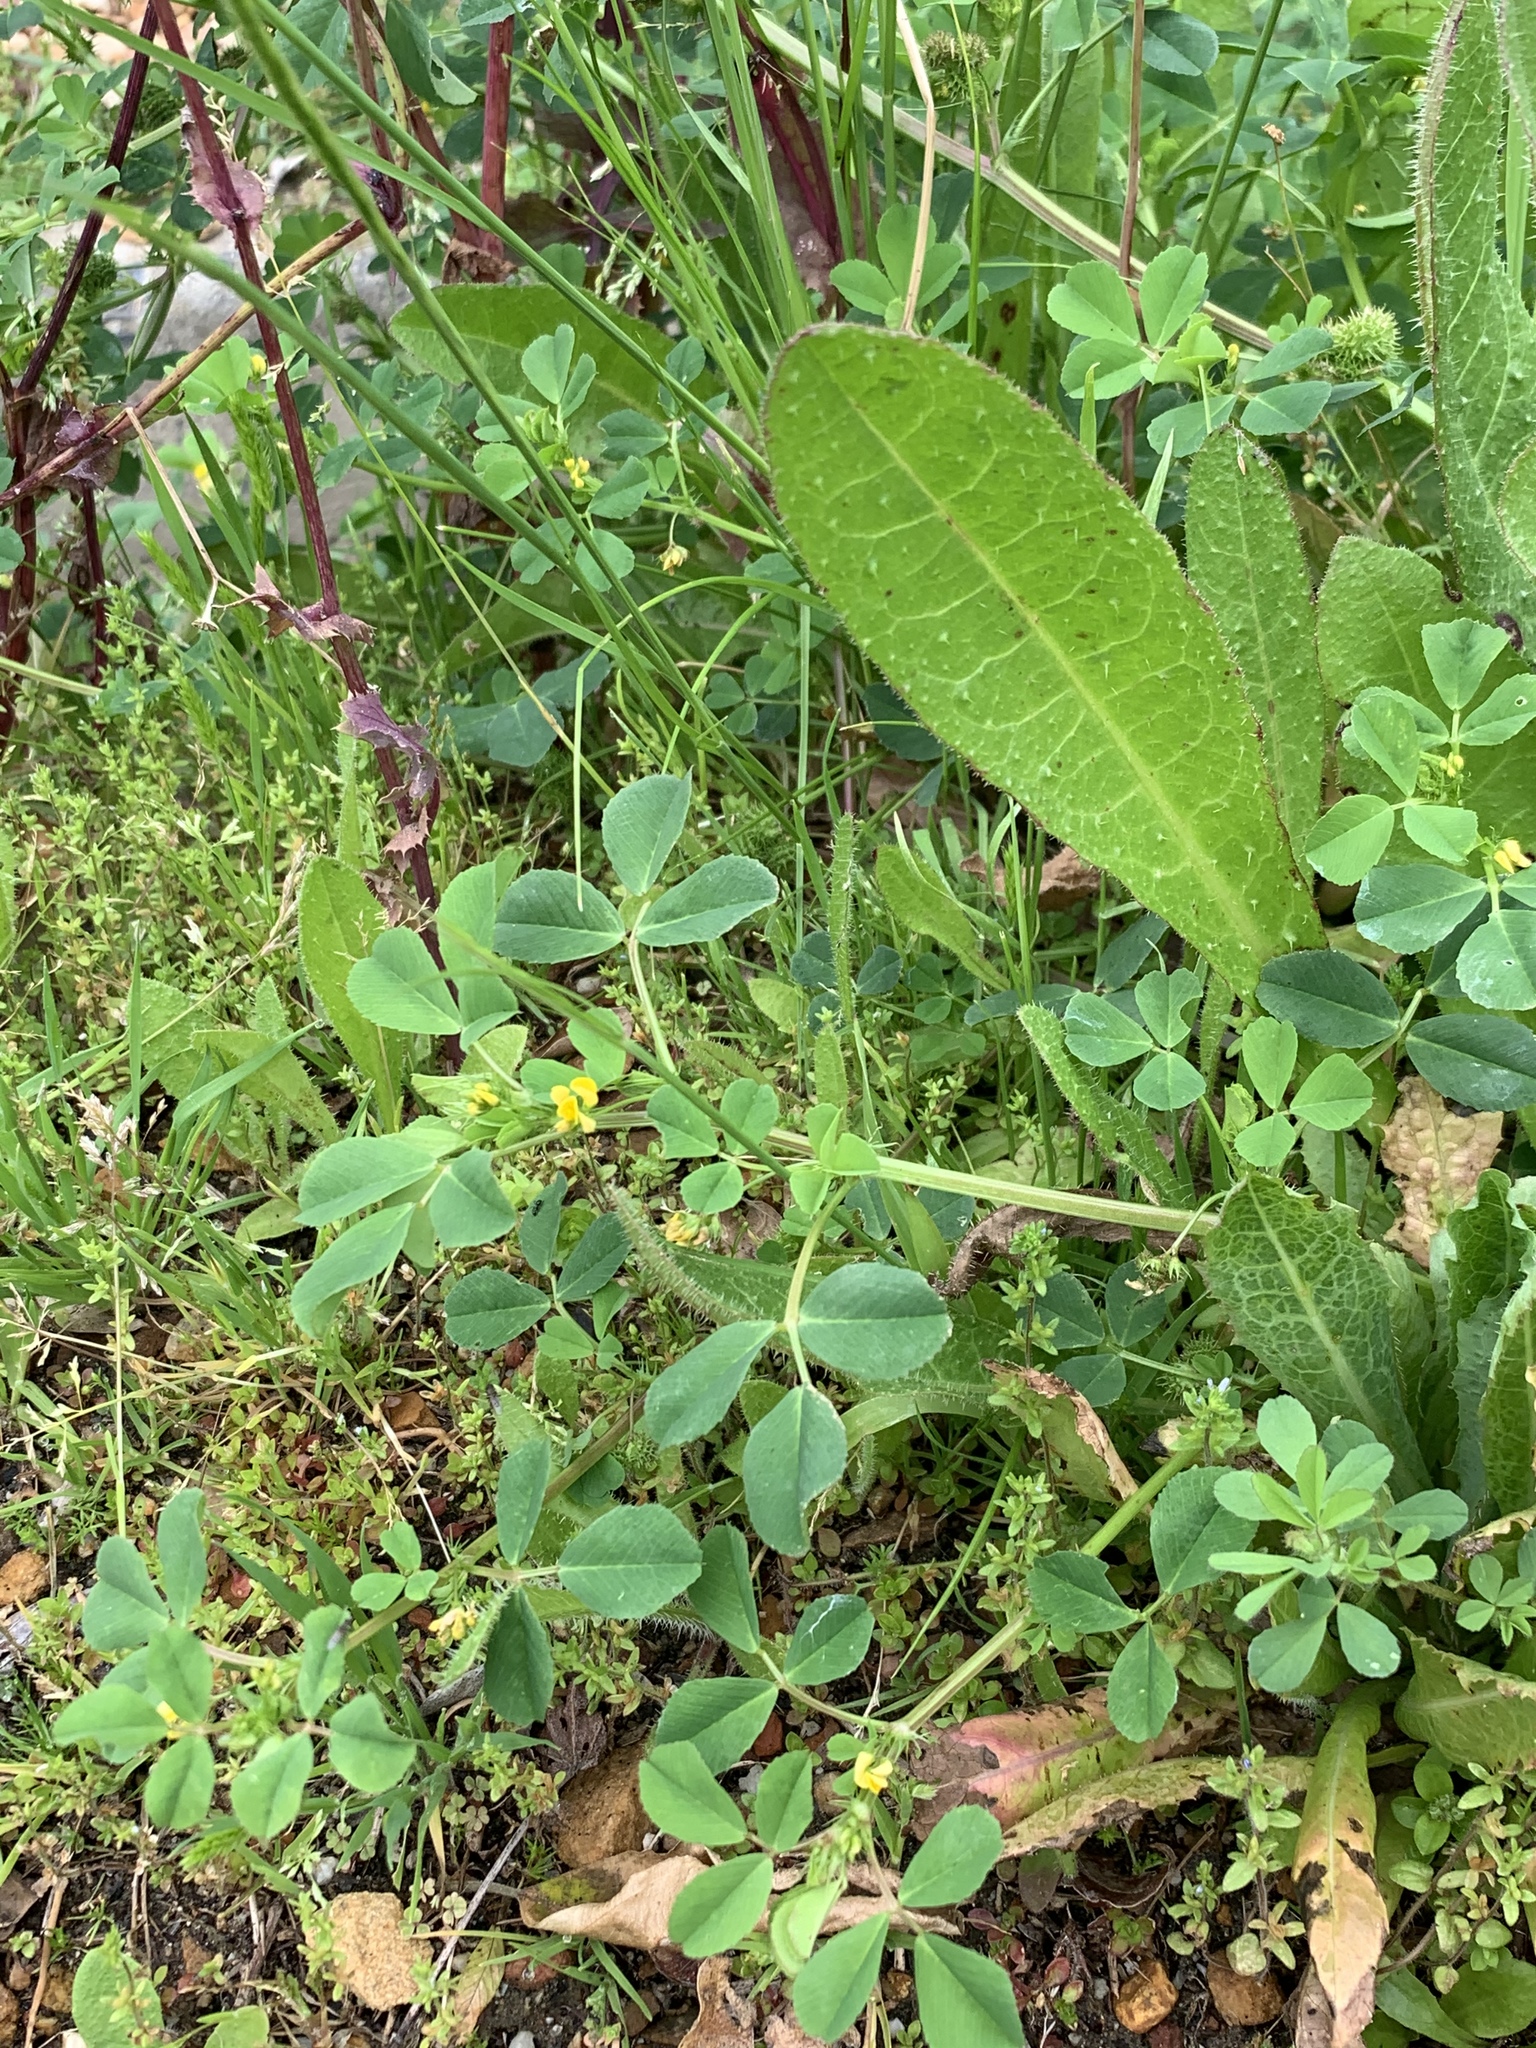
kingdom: Plantae
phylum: Tracheophyta
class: Magnoliopsida
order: Fabales
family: Fabaceae
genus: Medicago
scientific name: Medicago polymorpha
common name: Burclover
